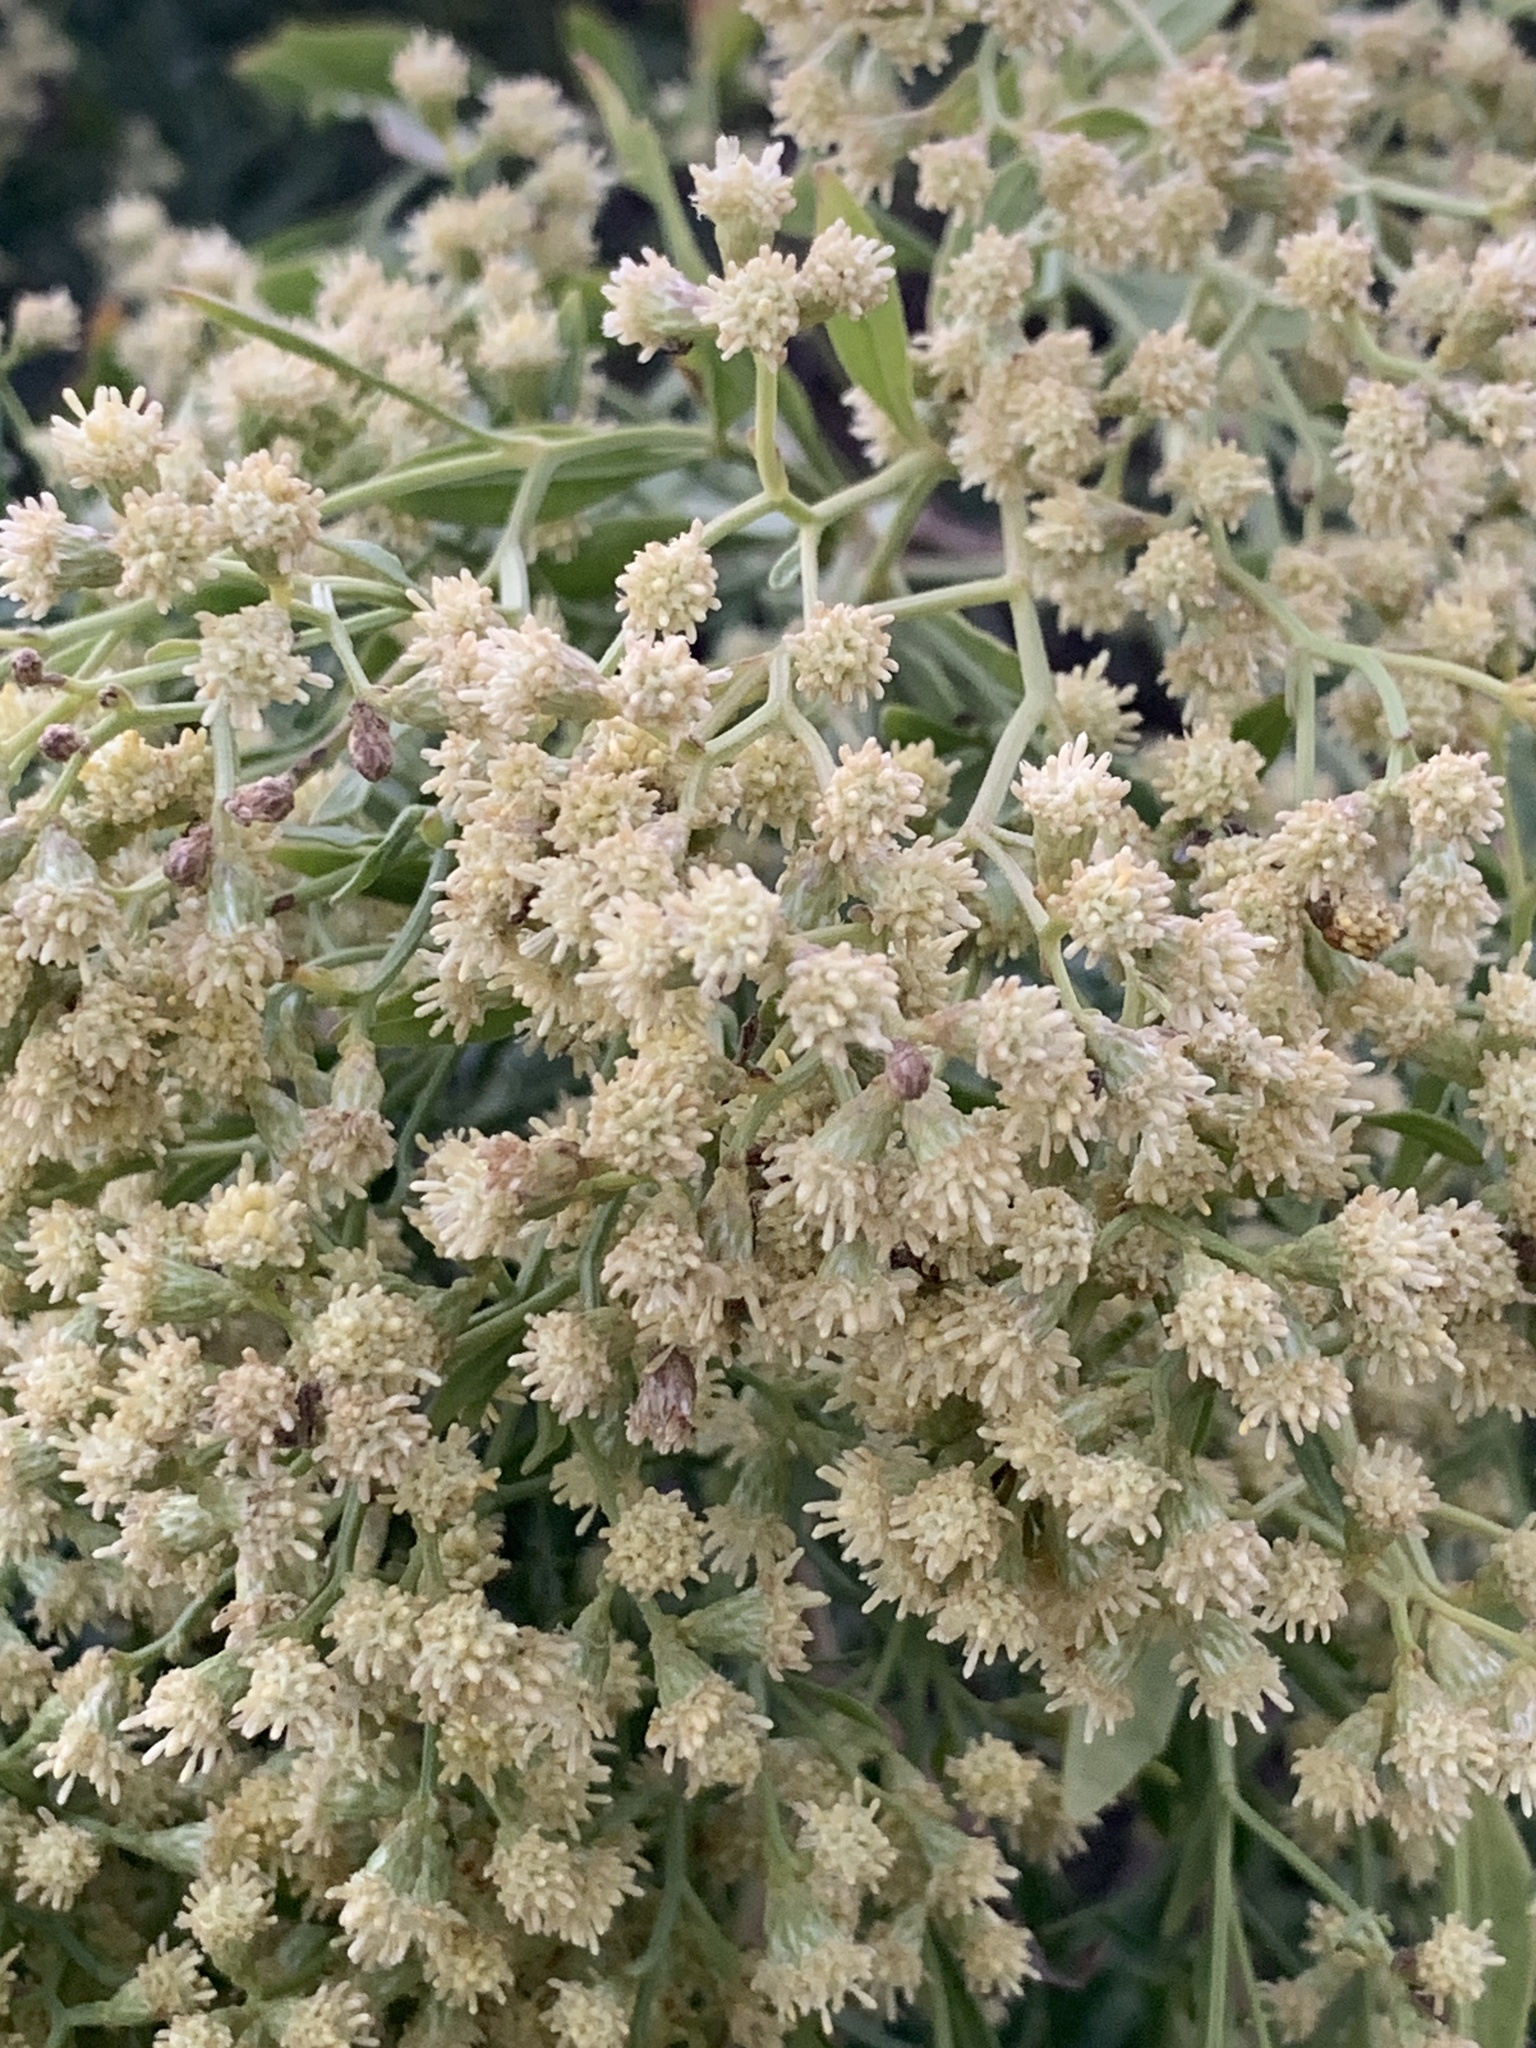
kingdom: Plantae
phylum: Tracheophyta
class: Magnoliopsida
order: Asterales
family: Asteraceae
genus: Baccharis
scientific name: Baccharis halimifolia
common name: Eastern baccharis
